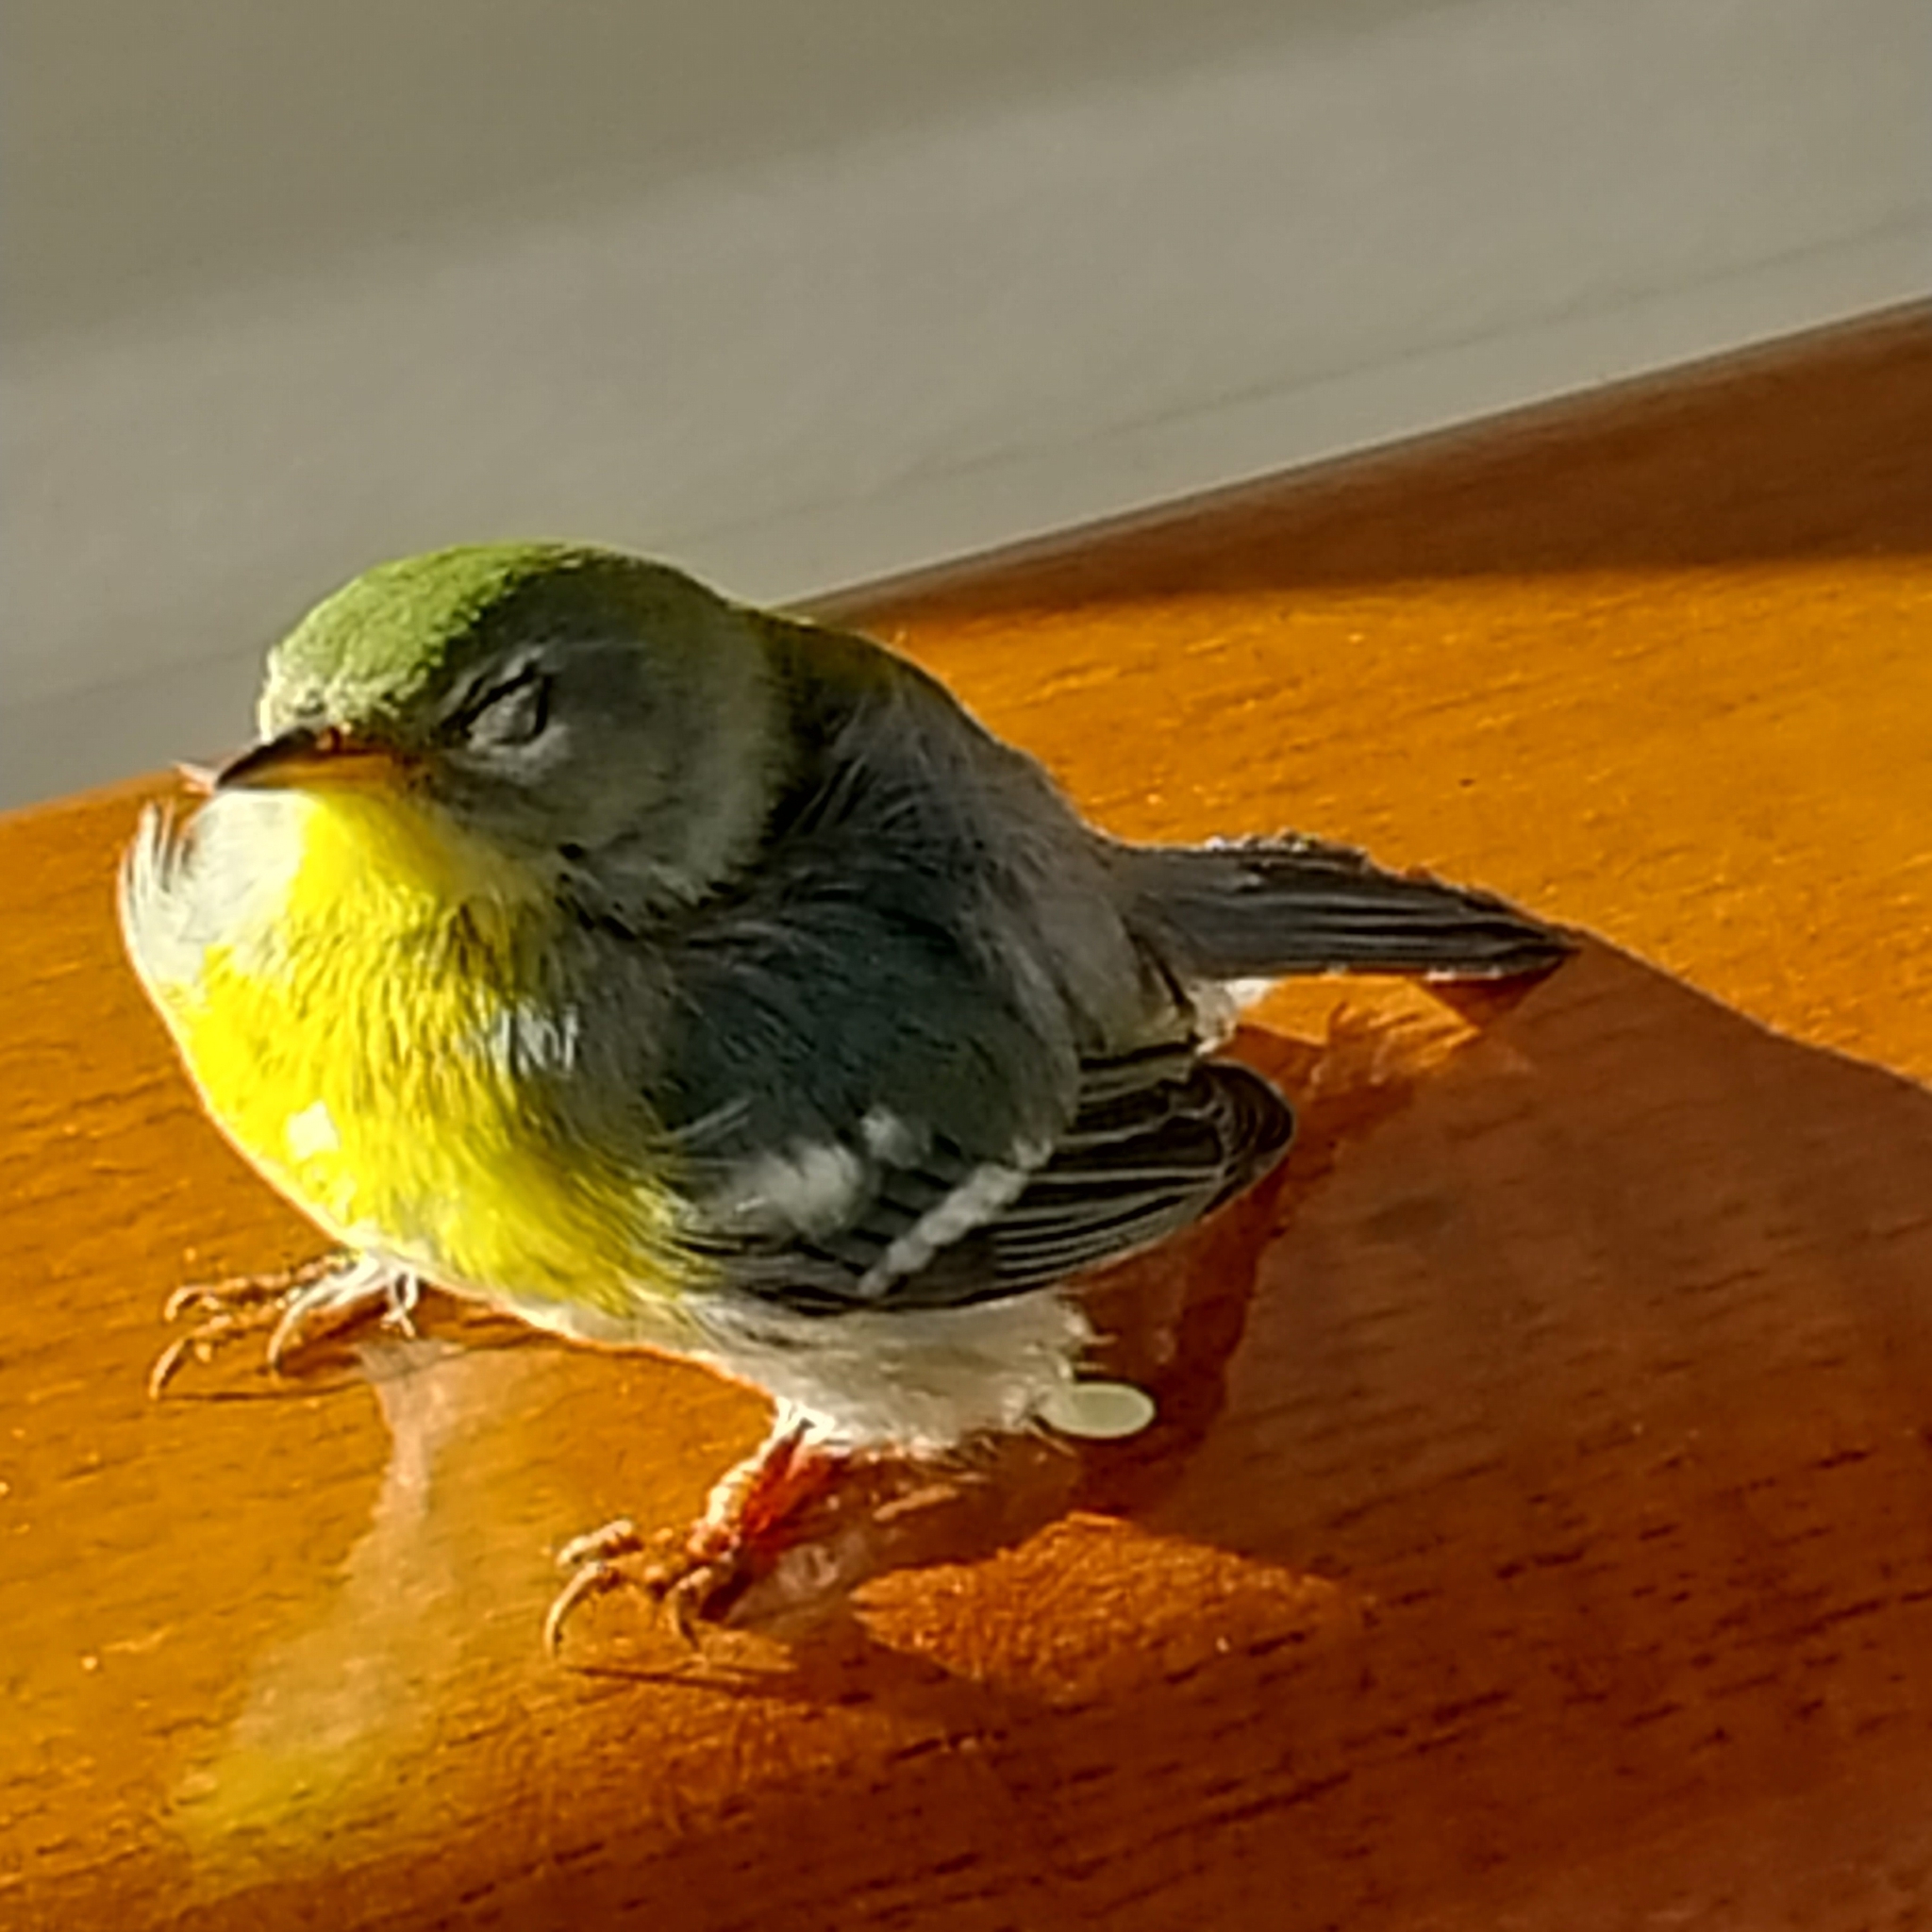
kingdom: Animalia
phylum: Chordata
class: Aves
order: Passeriformes
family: Parulidae
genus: Setophaga
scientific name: Setophaga americana
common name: Northern parula
